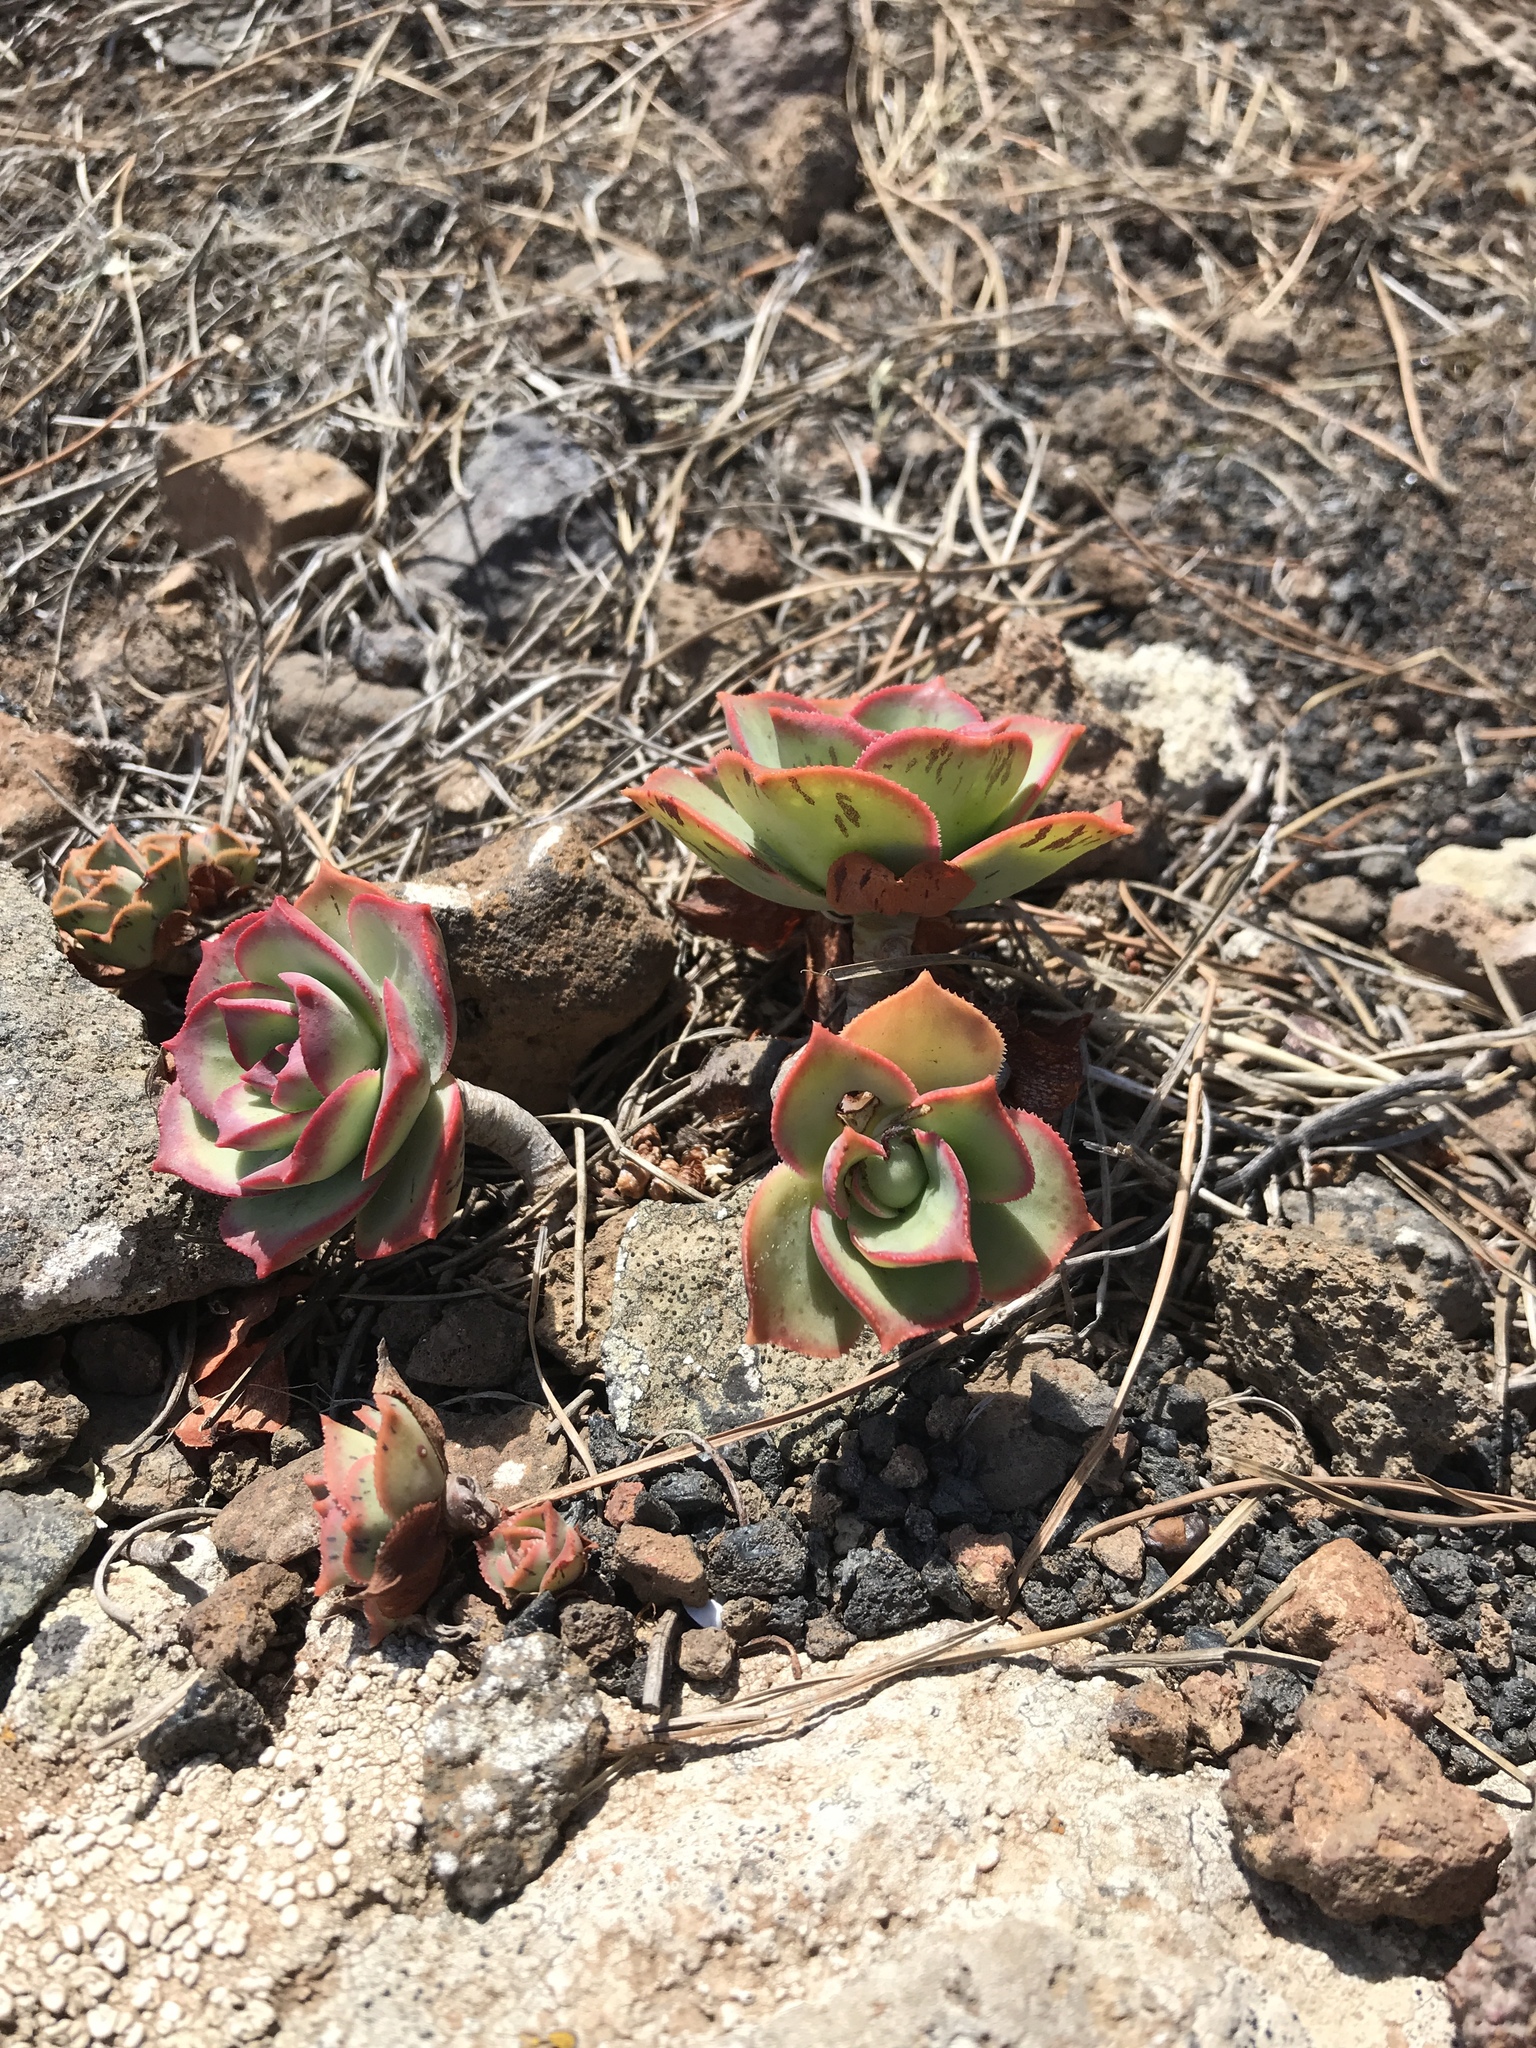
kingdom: Plantae
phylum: Tracheophyta
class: Magnoliopsida
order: Saxifragales
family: Crassulaceae
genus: Aeonium
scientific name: Aeonium lancerottense
